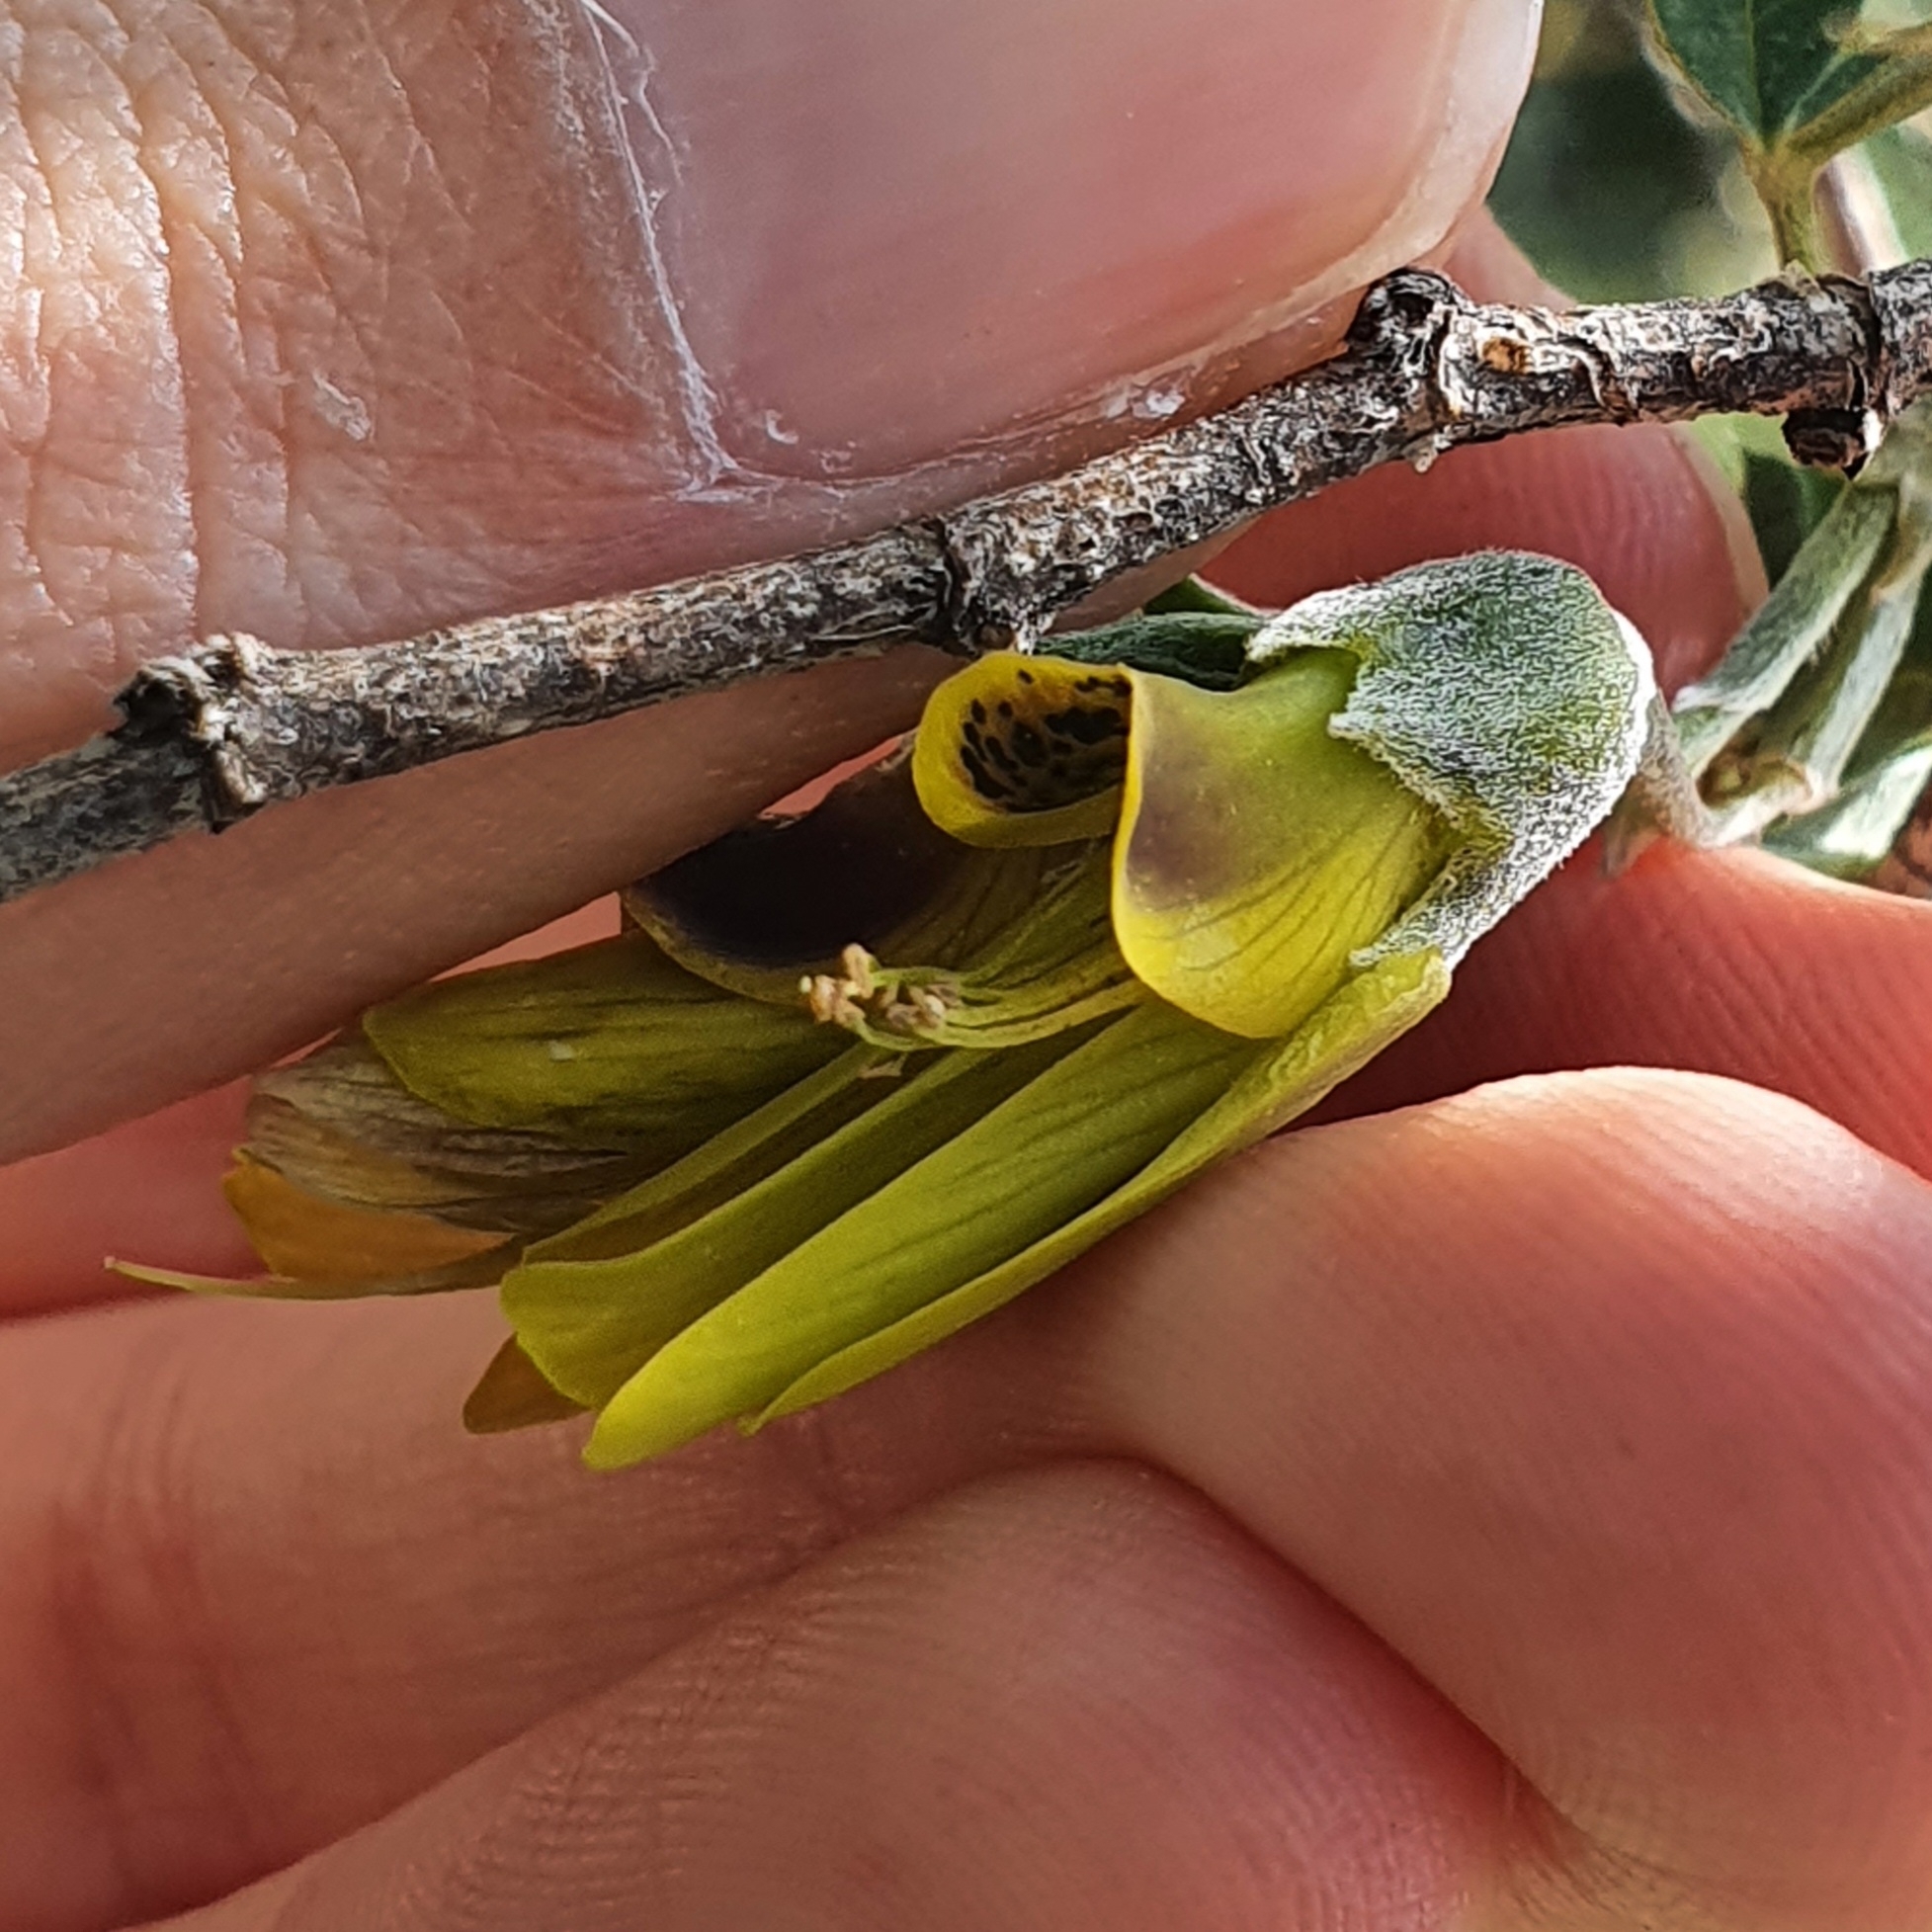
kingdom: Plantae
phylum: Tracheophyta
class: Magnoliopsida
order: Fabales
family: Fabaceae
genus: Anagyris
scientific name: Anagyris foetida
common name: Stinking bean trefoil
